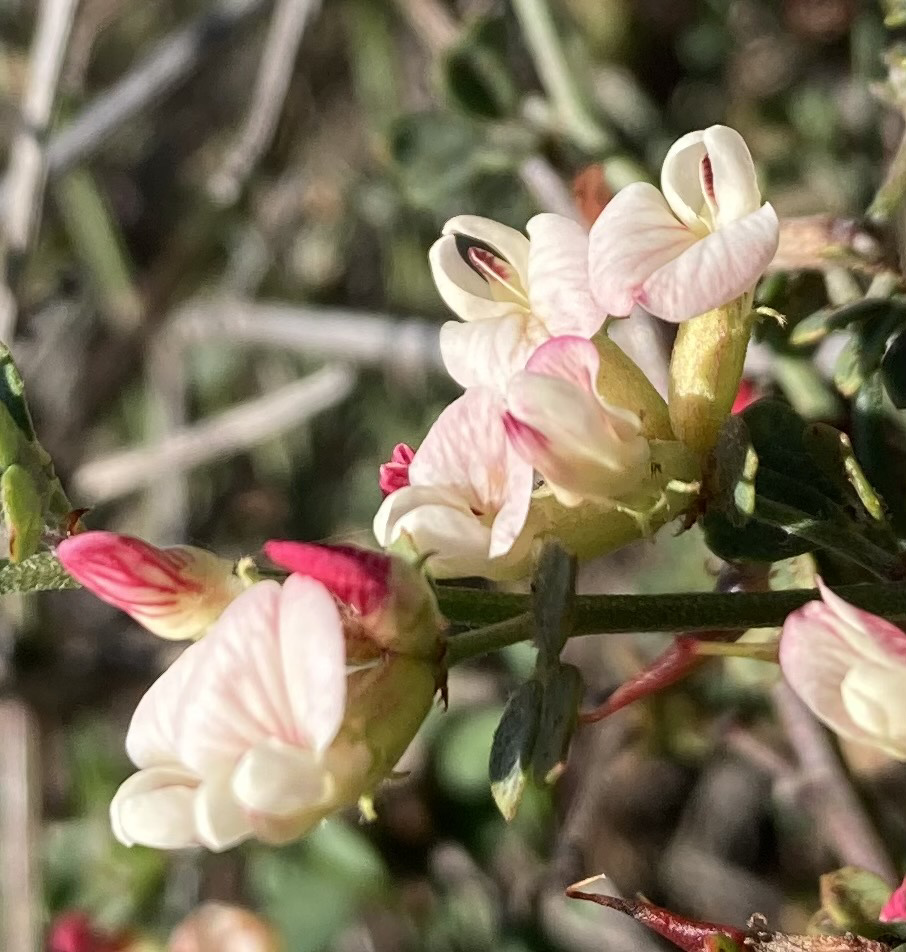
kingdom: Plantae
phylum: Tracheophyta
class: Magnoliopsida
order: Fabales
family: Fabaceae
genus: Acmispon
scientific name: Acmispon cytisoides
